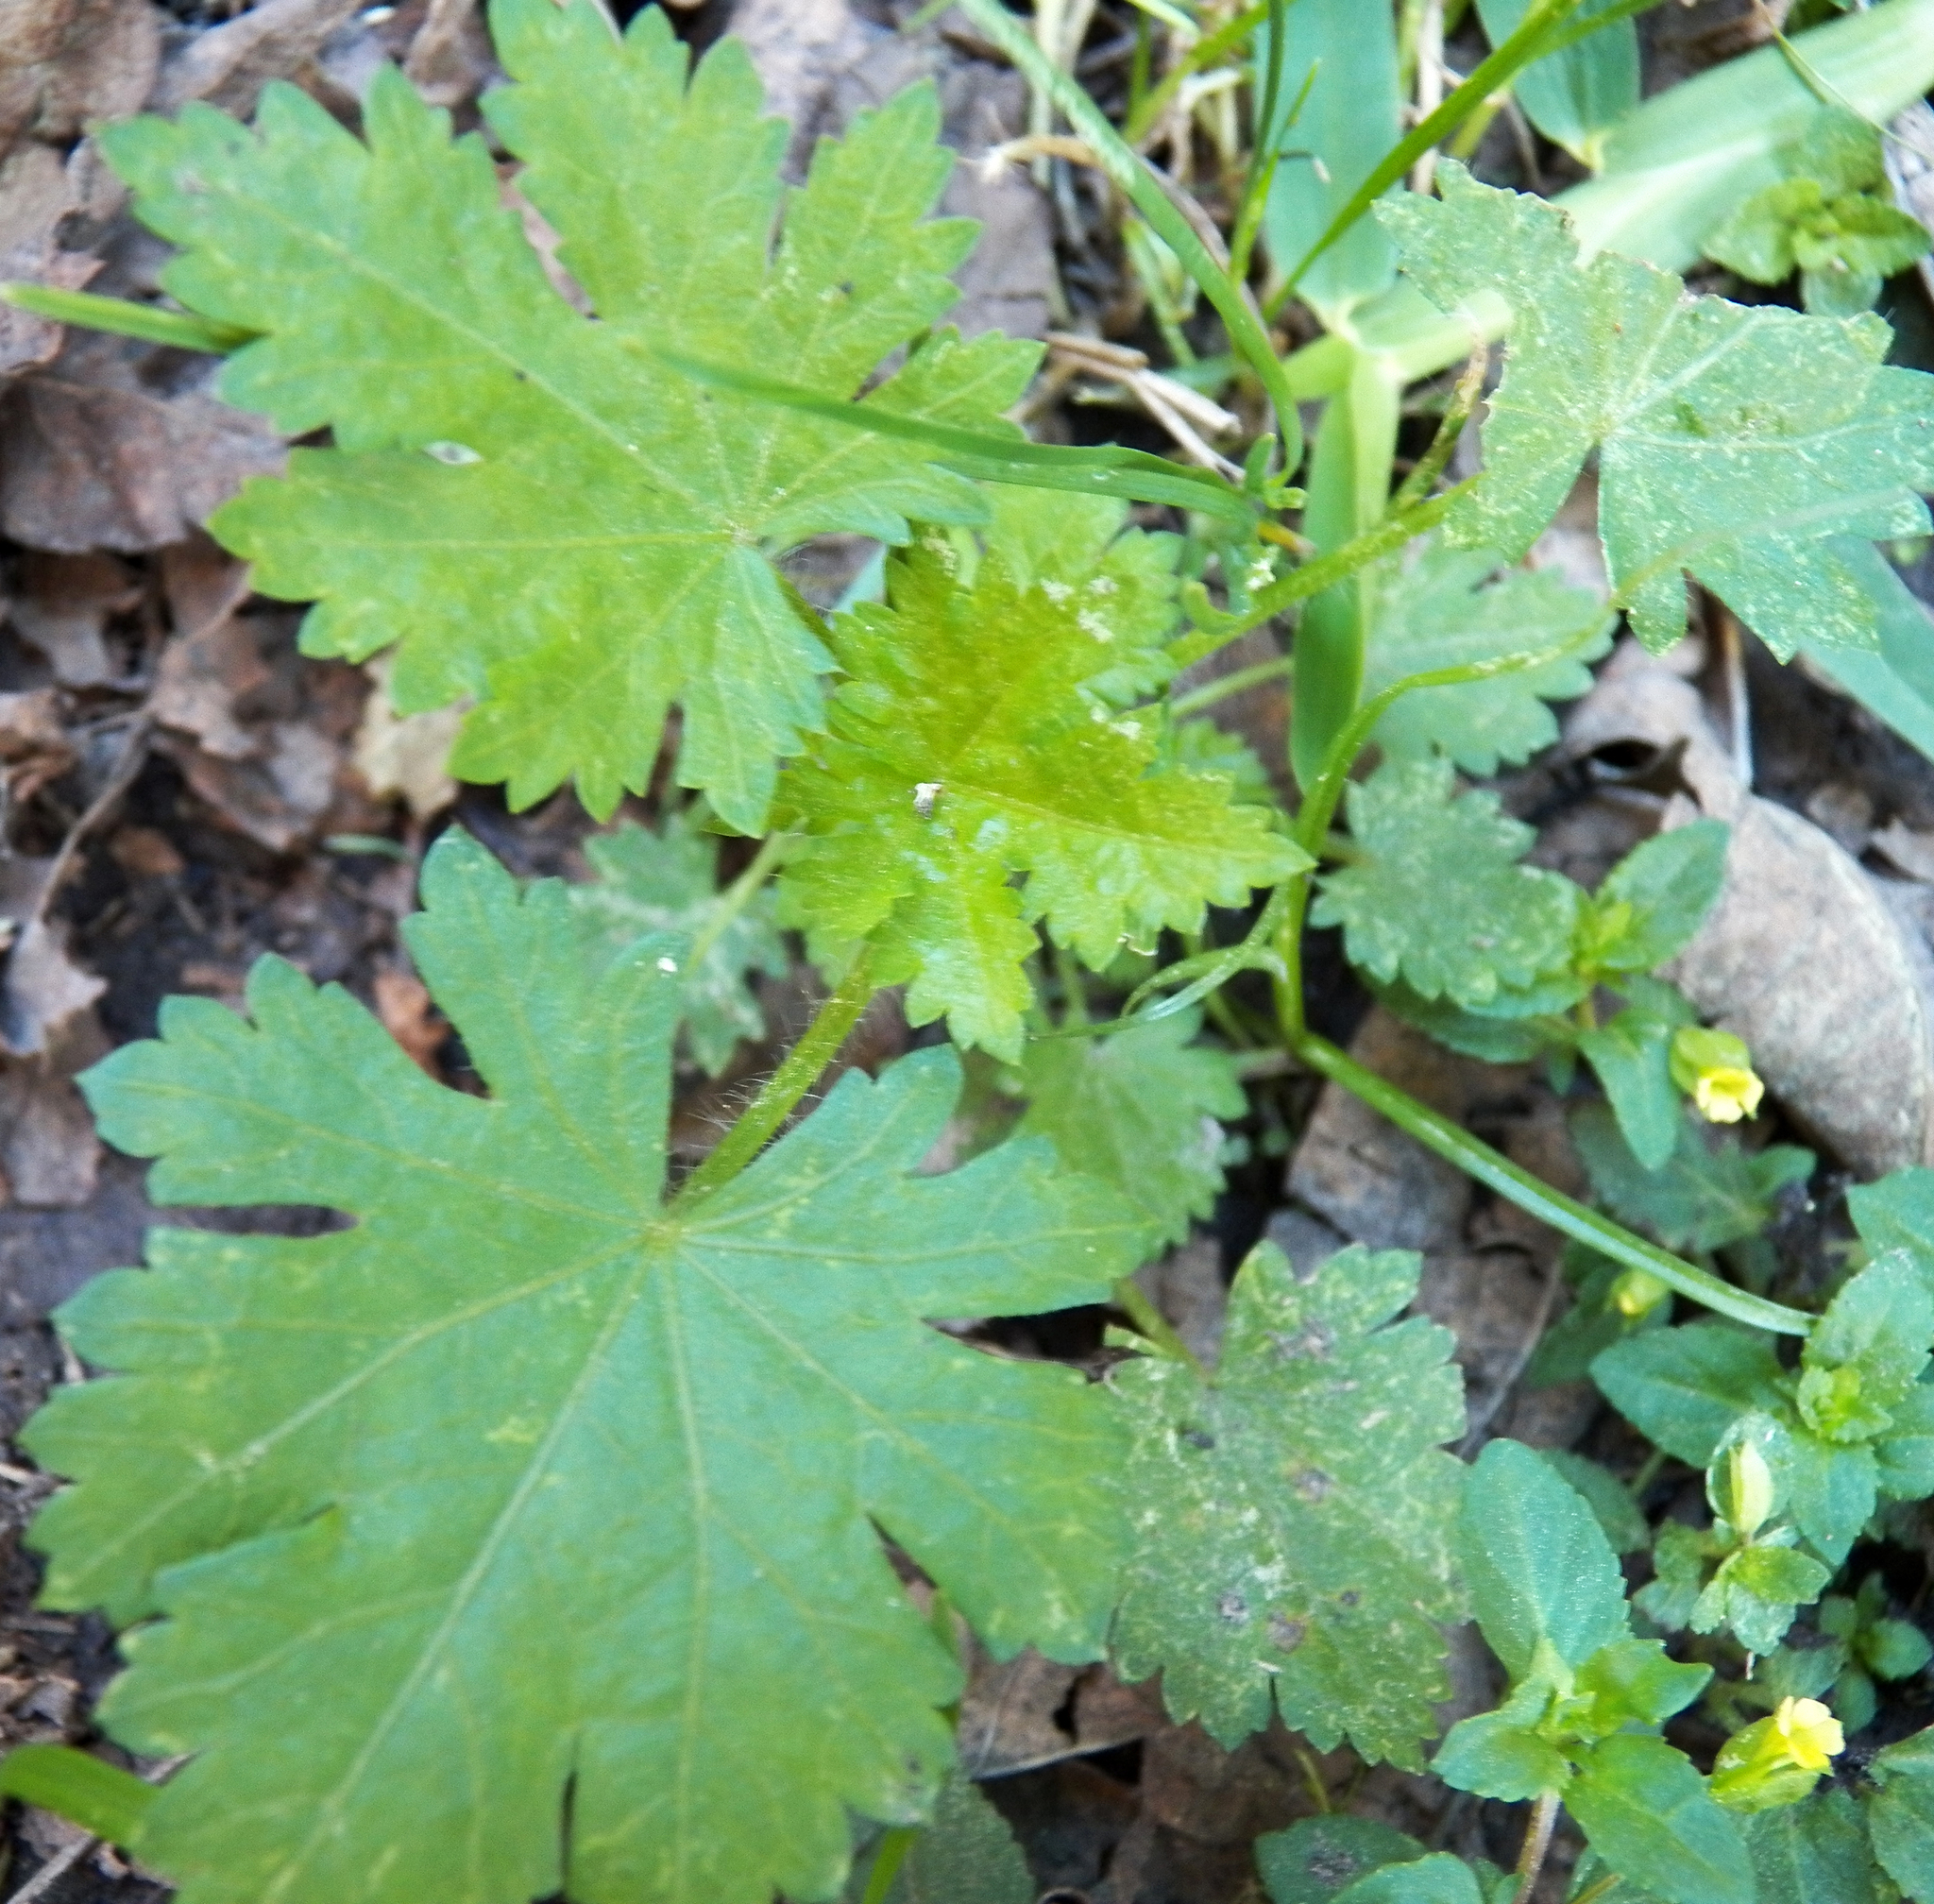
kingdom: Plantae
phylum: Tracheophyta
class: Magnoliopsida
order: Malvales
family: Malvaceae
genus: Modiola
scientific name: Modiola caroliniana
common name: Carolina bristlemallow
